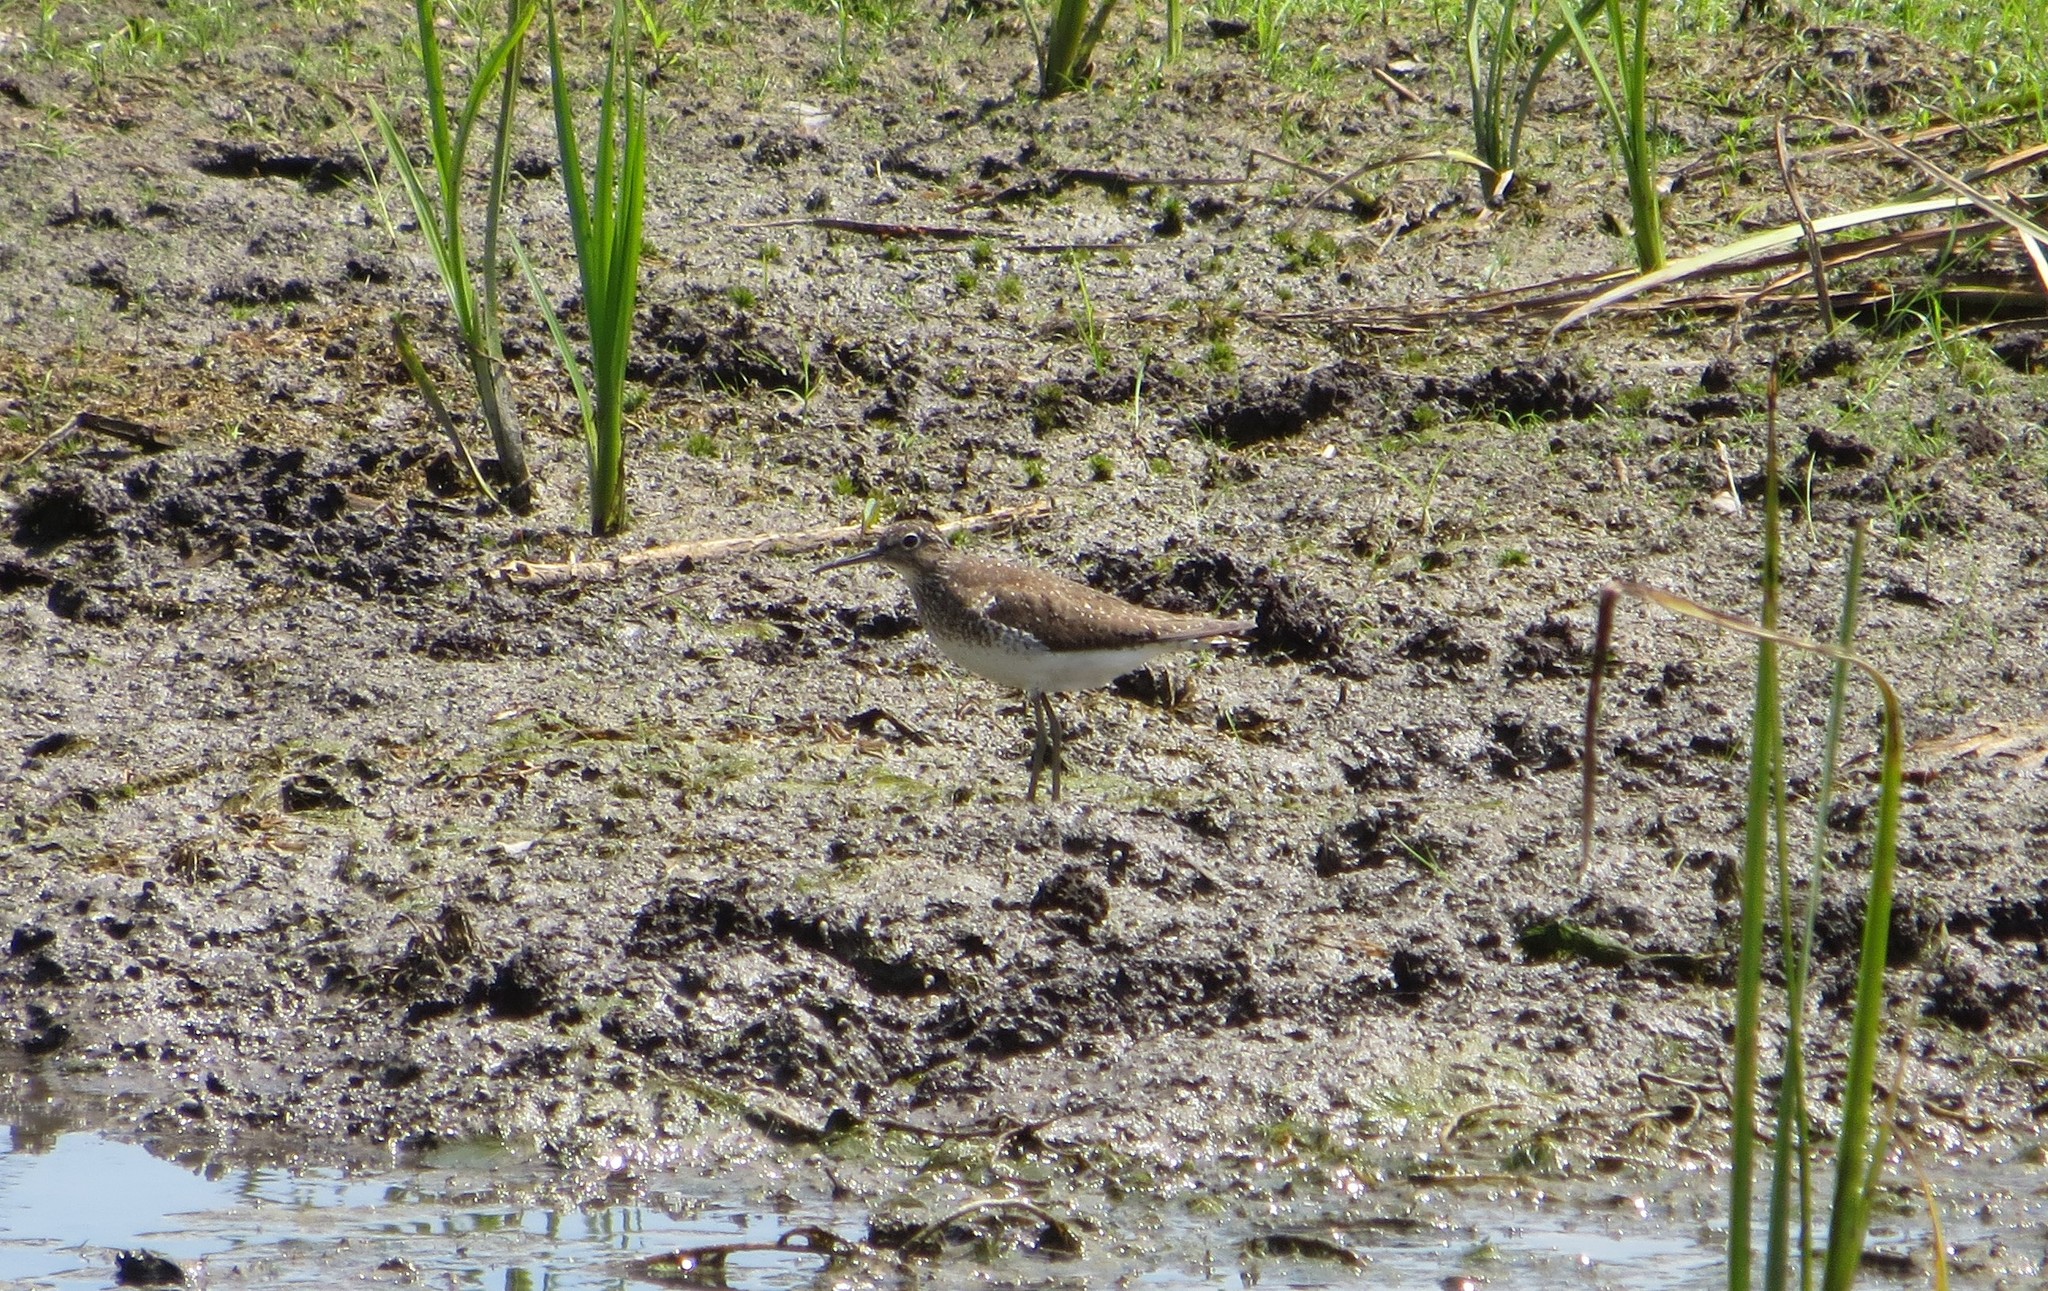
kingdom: Animalia
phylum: Chordata
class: Aves
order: Charadriiformes
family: Scolopacidae
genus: Tringa
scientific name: Tringa solitaria
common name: Solitary sandpiper
